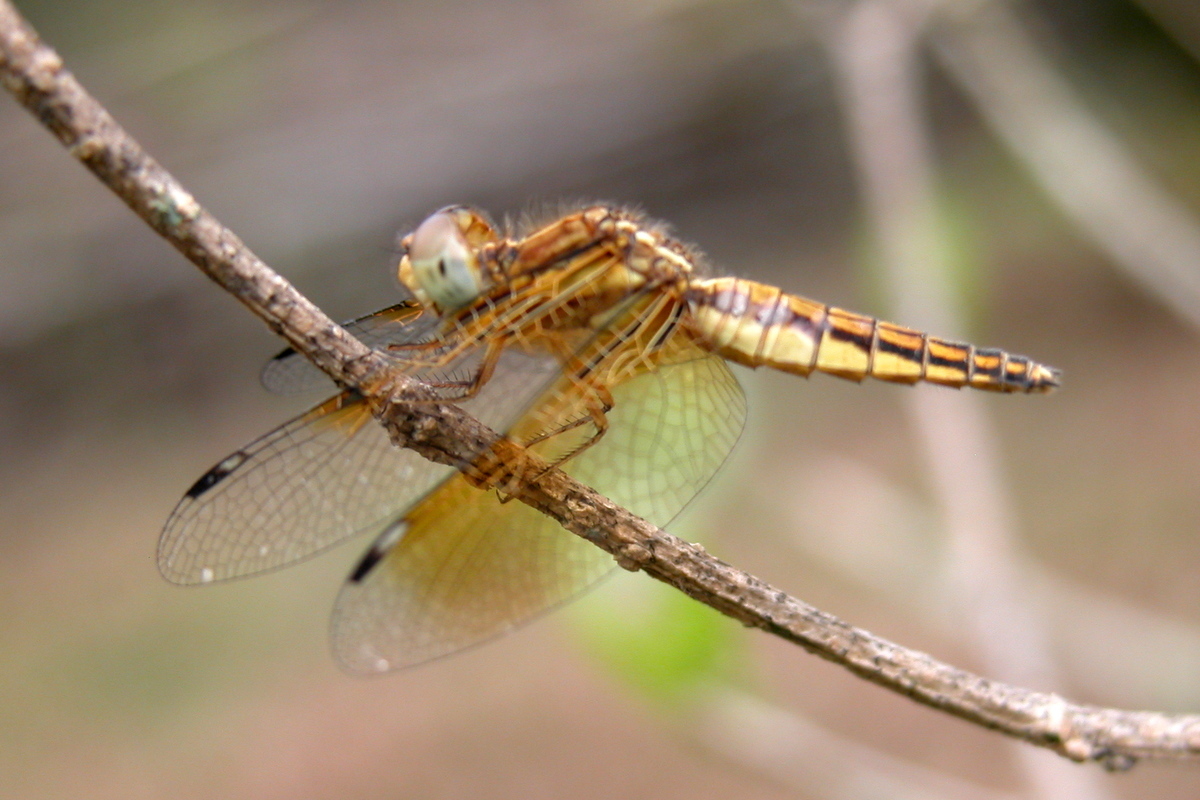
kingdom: Animalia
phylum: Arthropoda
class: Insecta
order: Odonata
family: Libellulidae
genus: Palpopleura
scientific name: Palpopleura sexmaculata
